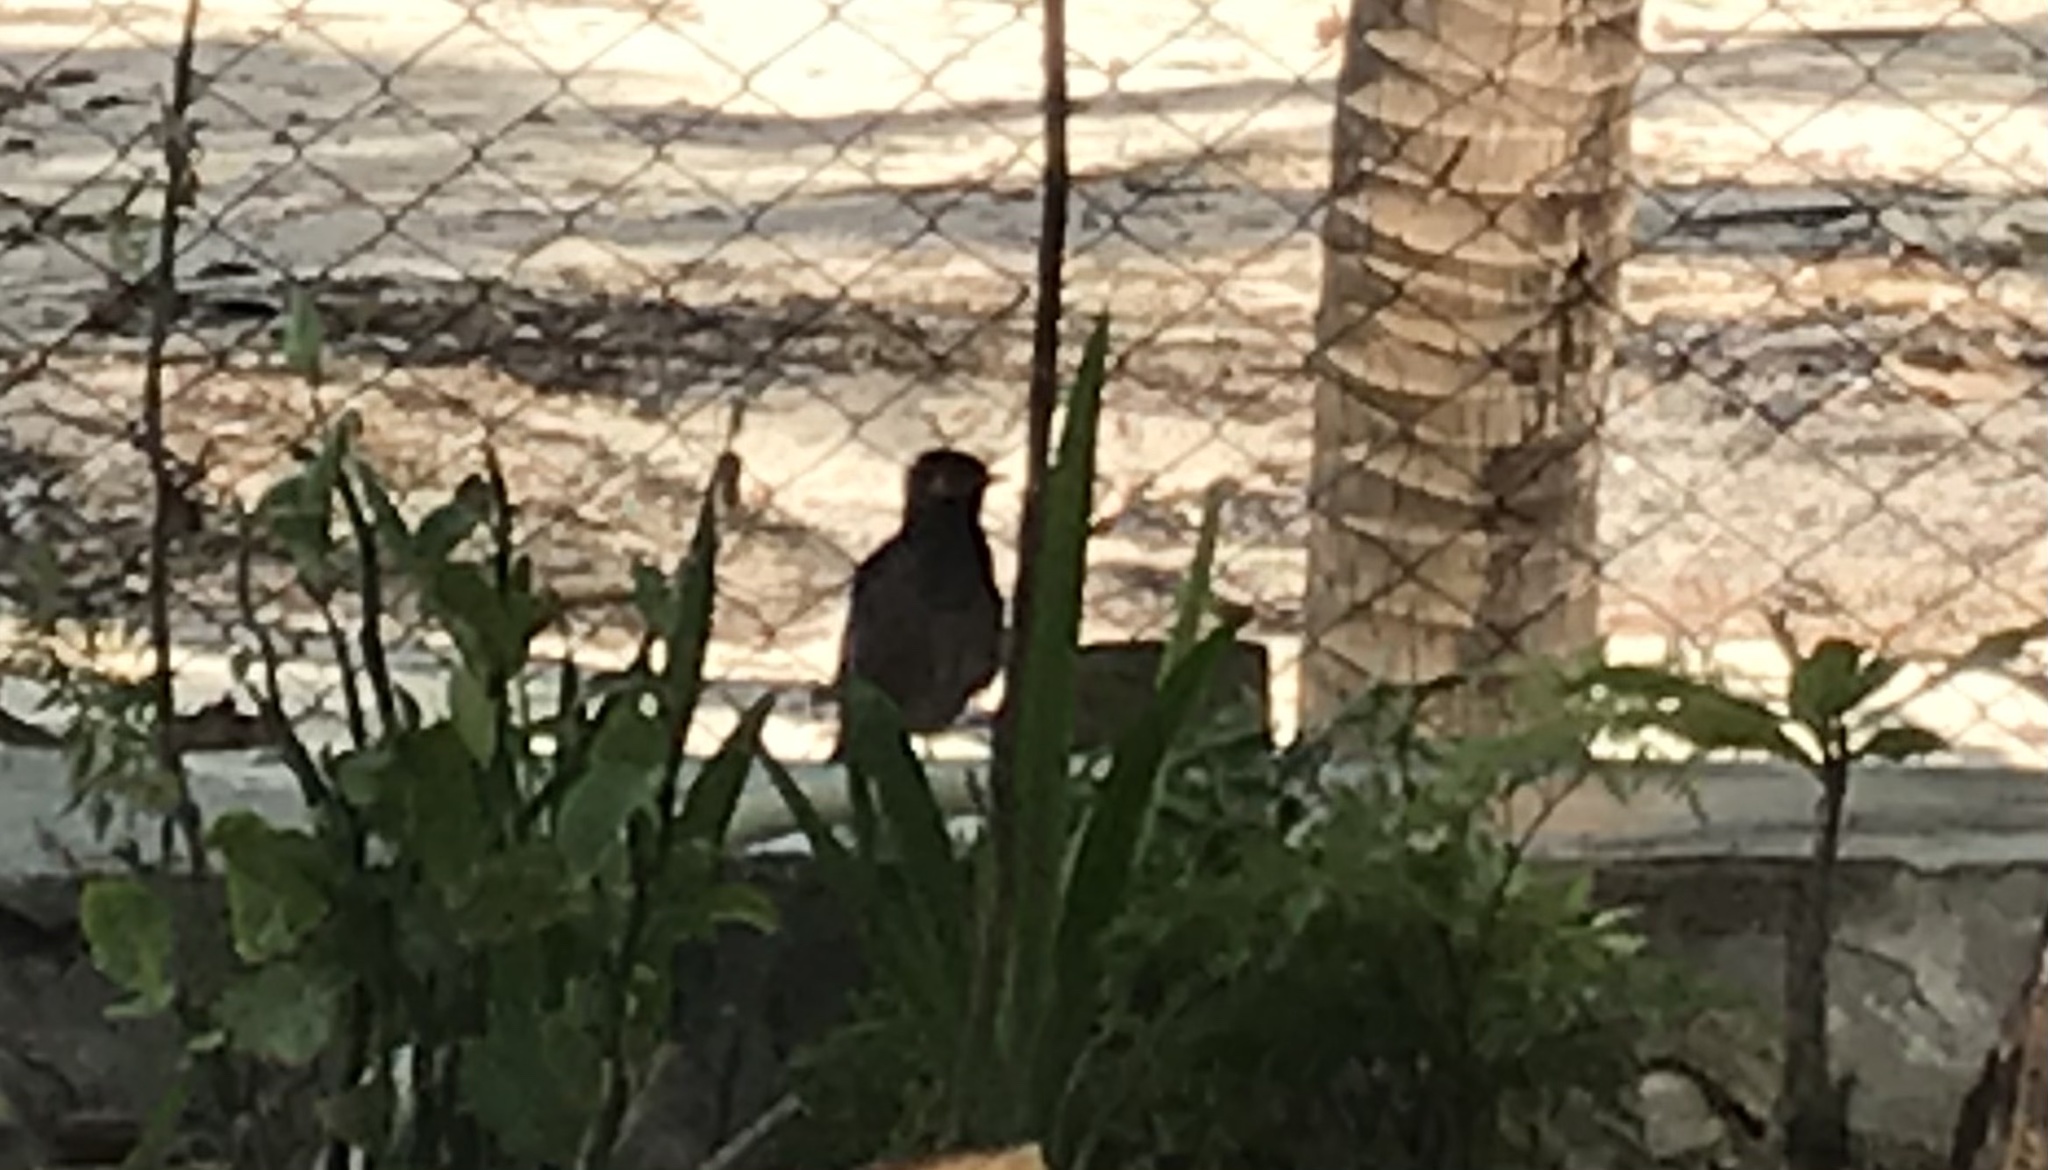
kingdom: Animalia
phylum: Chordata
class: Aves
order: Passeriformes
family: Sturnidae
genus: Acridotheres
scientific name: Acridotheres tristis
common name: Common myna
